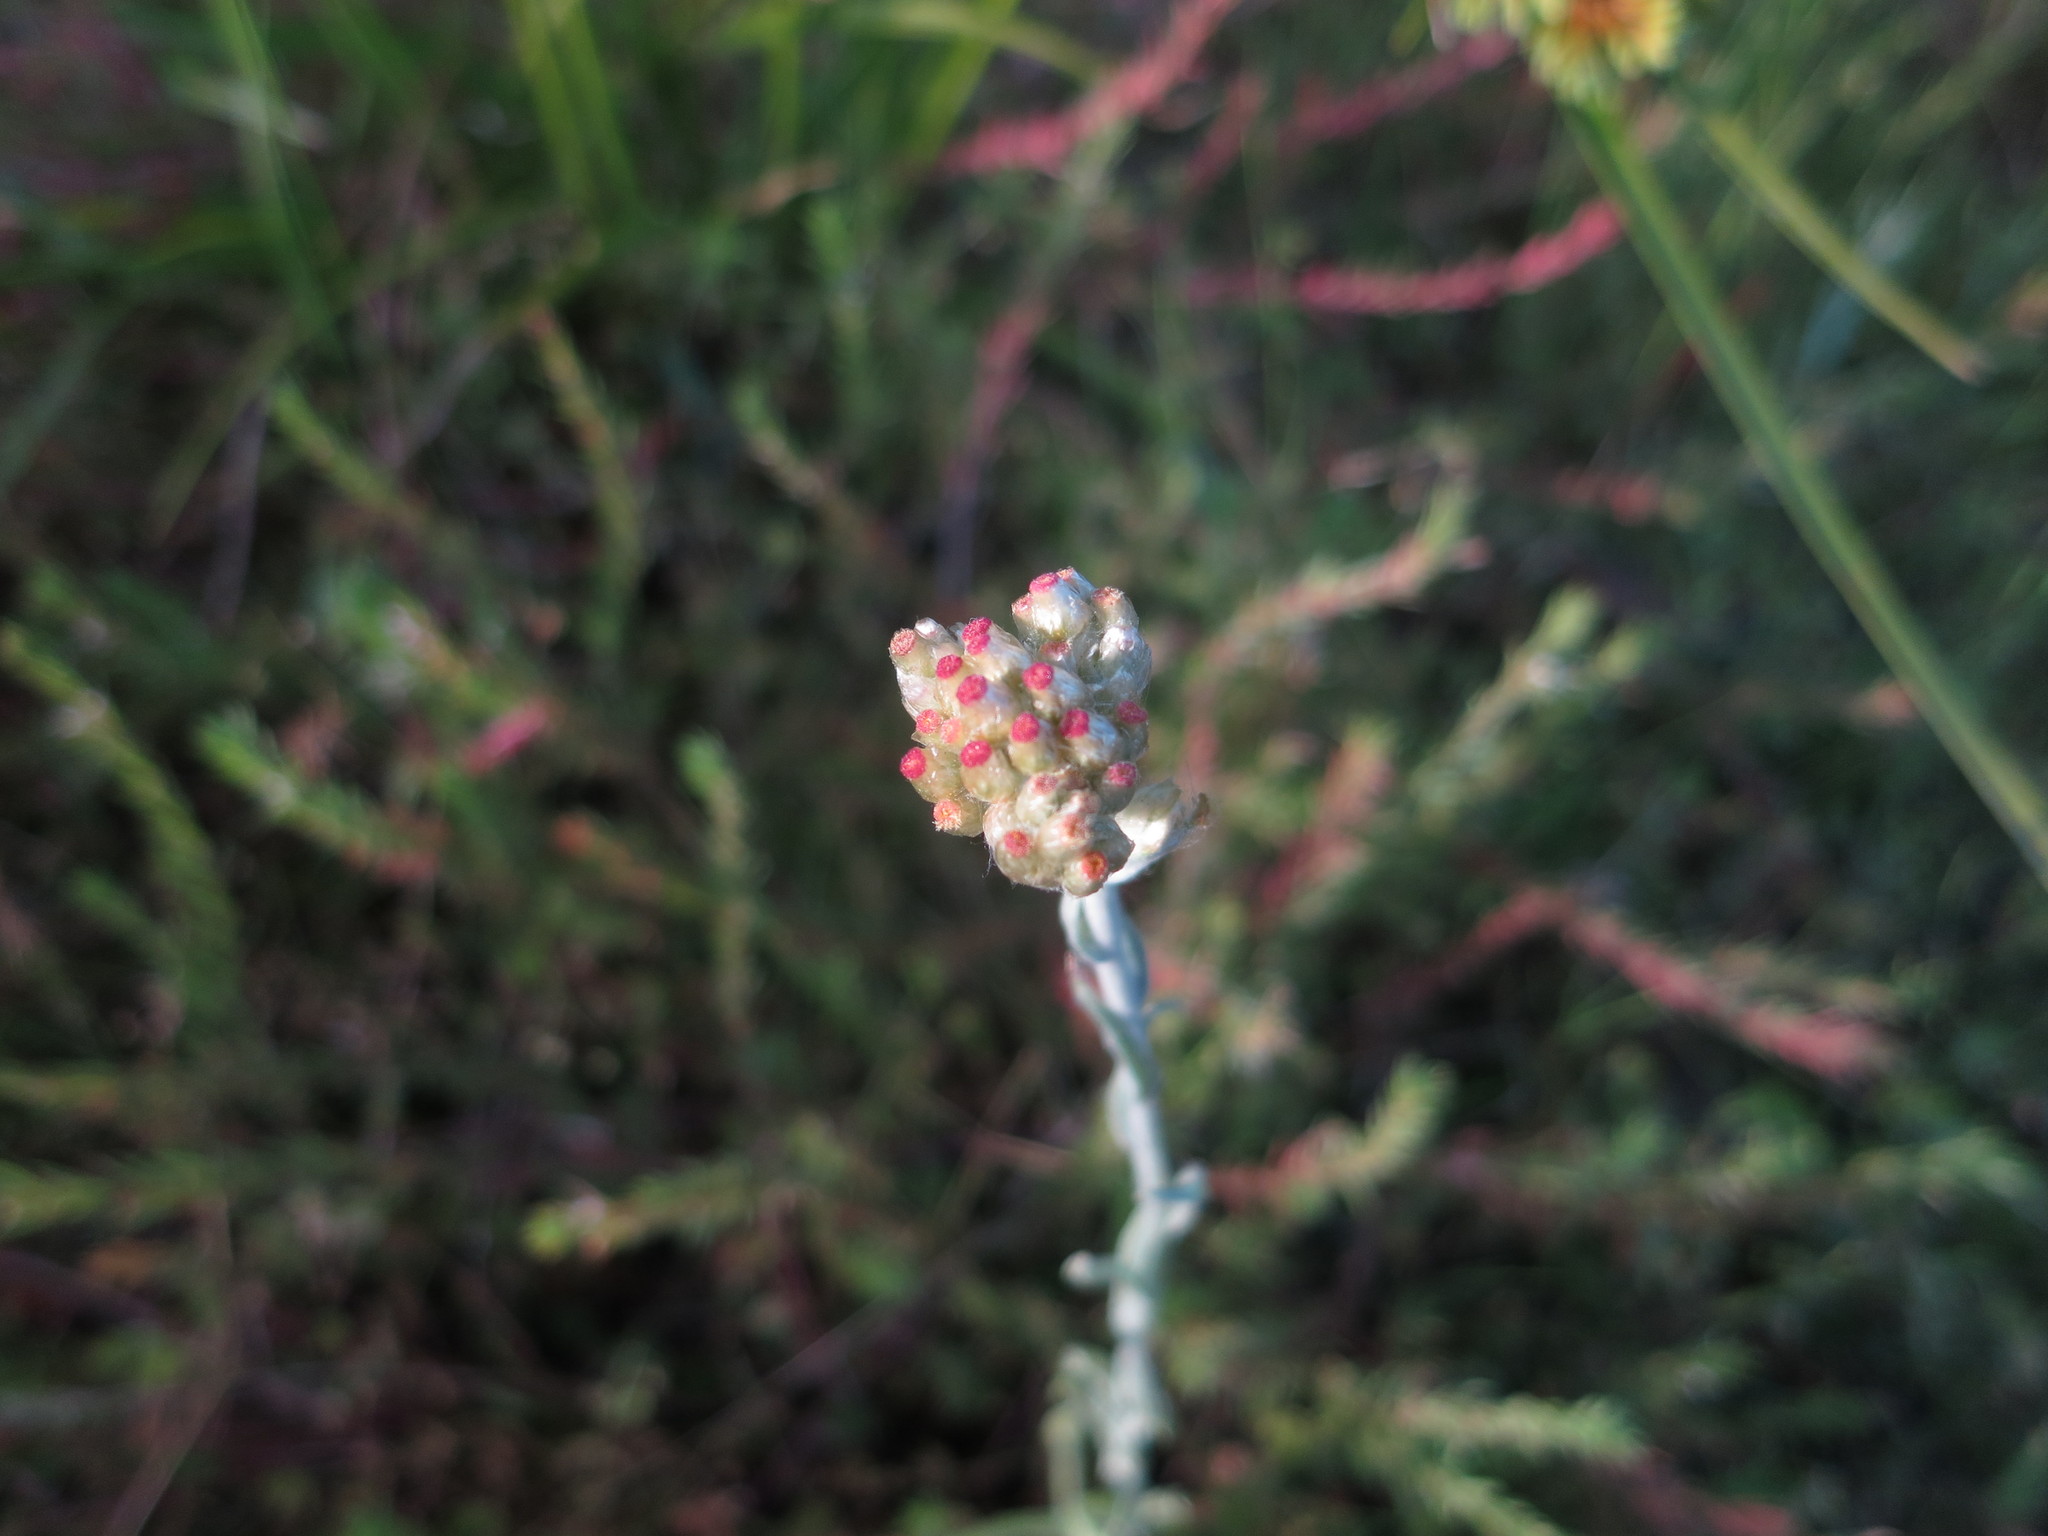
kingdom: Plantae
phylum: Tracheophyta
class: Magnoliopsida
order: Asterales
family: Asteraceae
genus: Helichrysum
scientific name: Helichrysum luteoalbum
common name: Daisy
